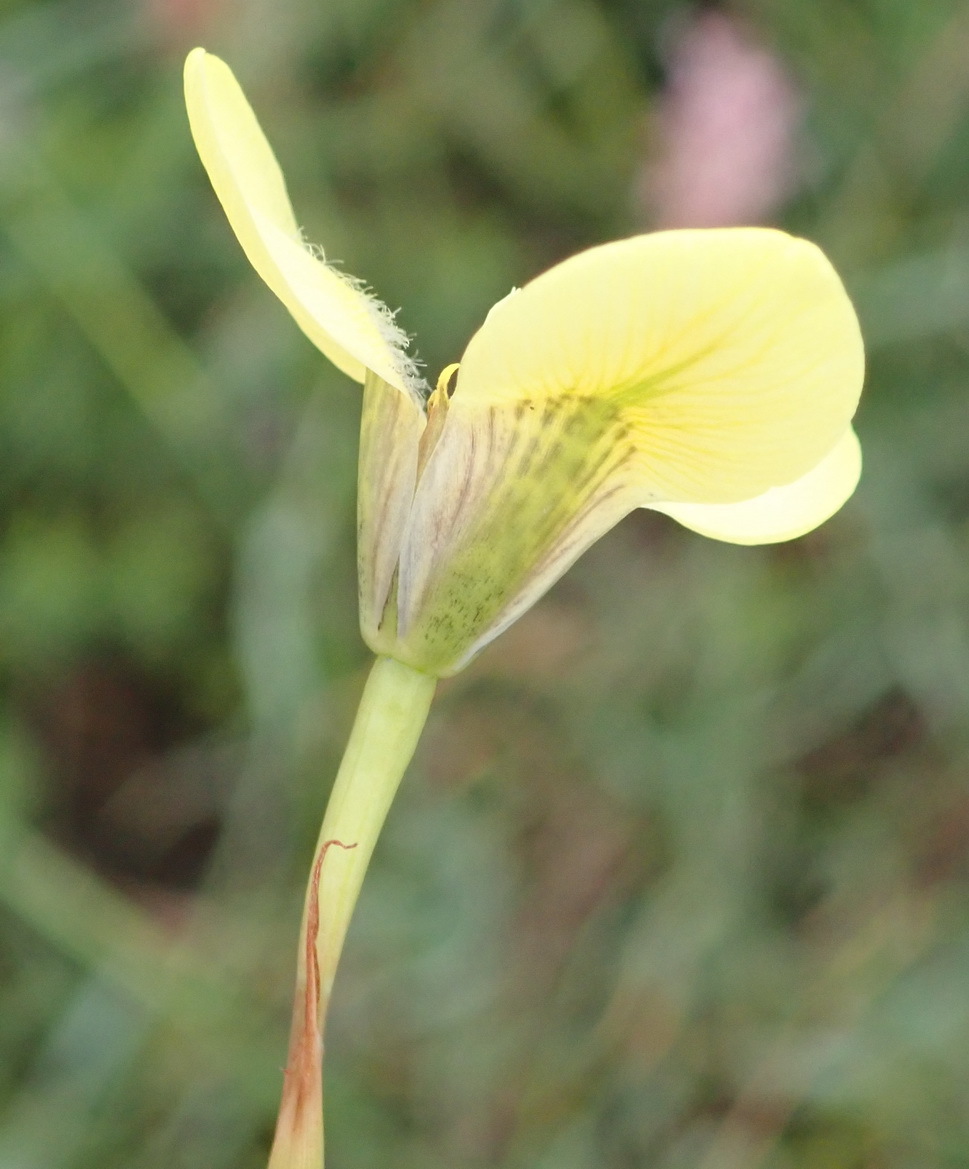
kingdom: Plantae
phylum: Tracheophyta
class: Liliopsida
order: Asparagales
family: Iridaceae
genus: Moraea
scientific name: Moraea bellendenii
